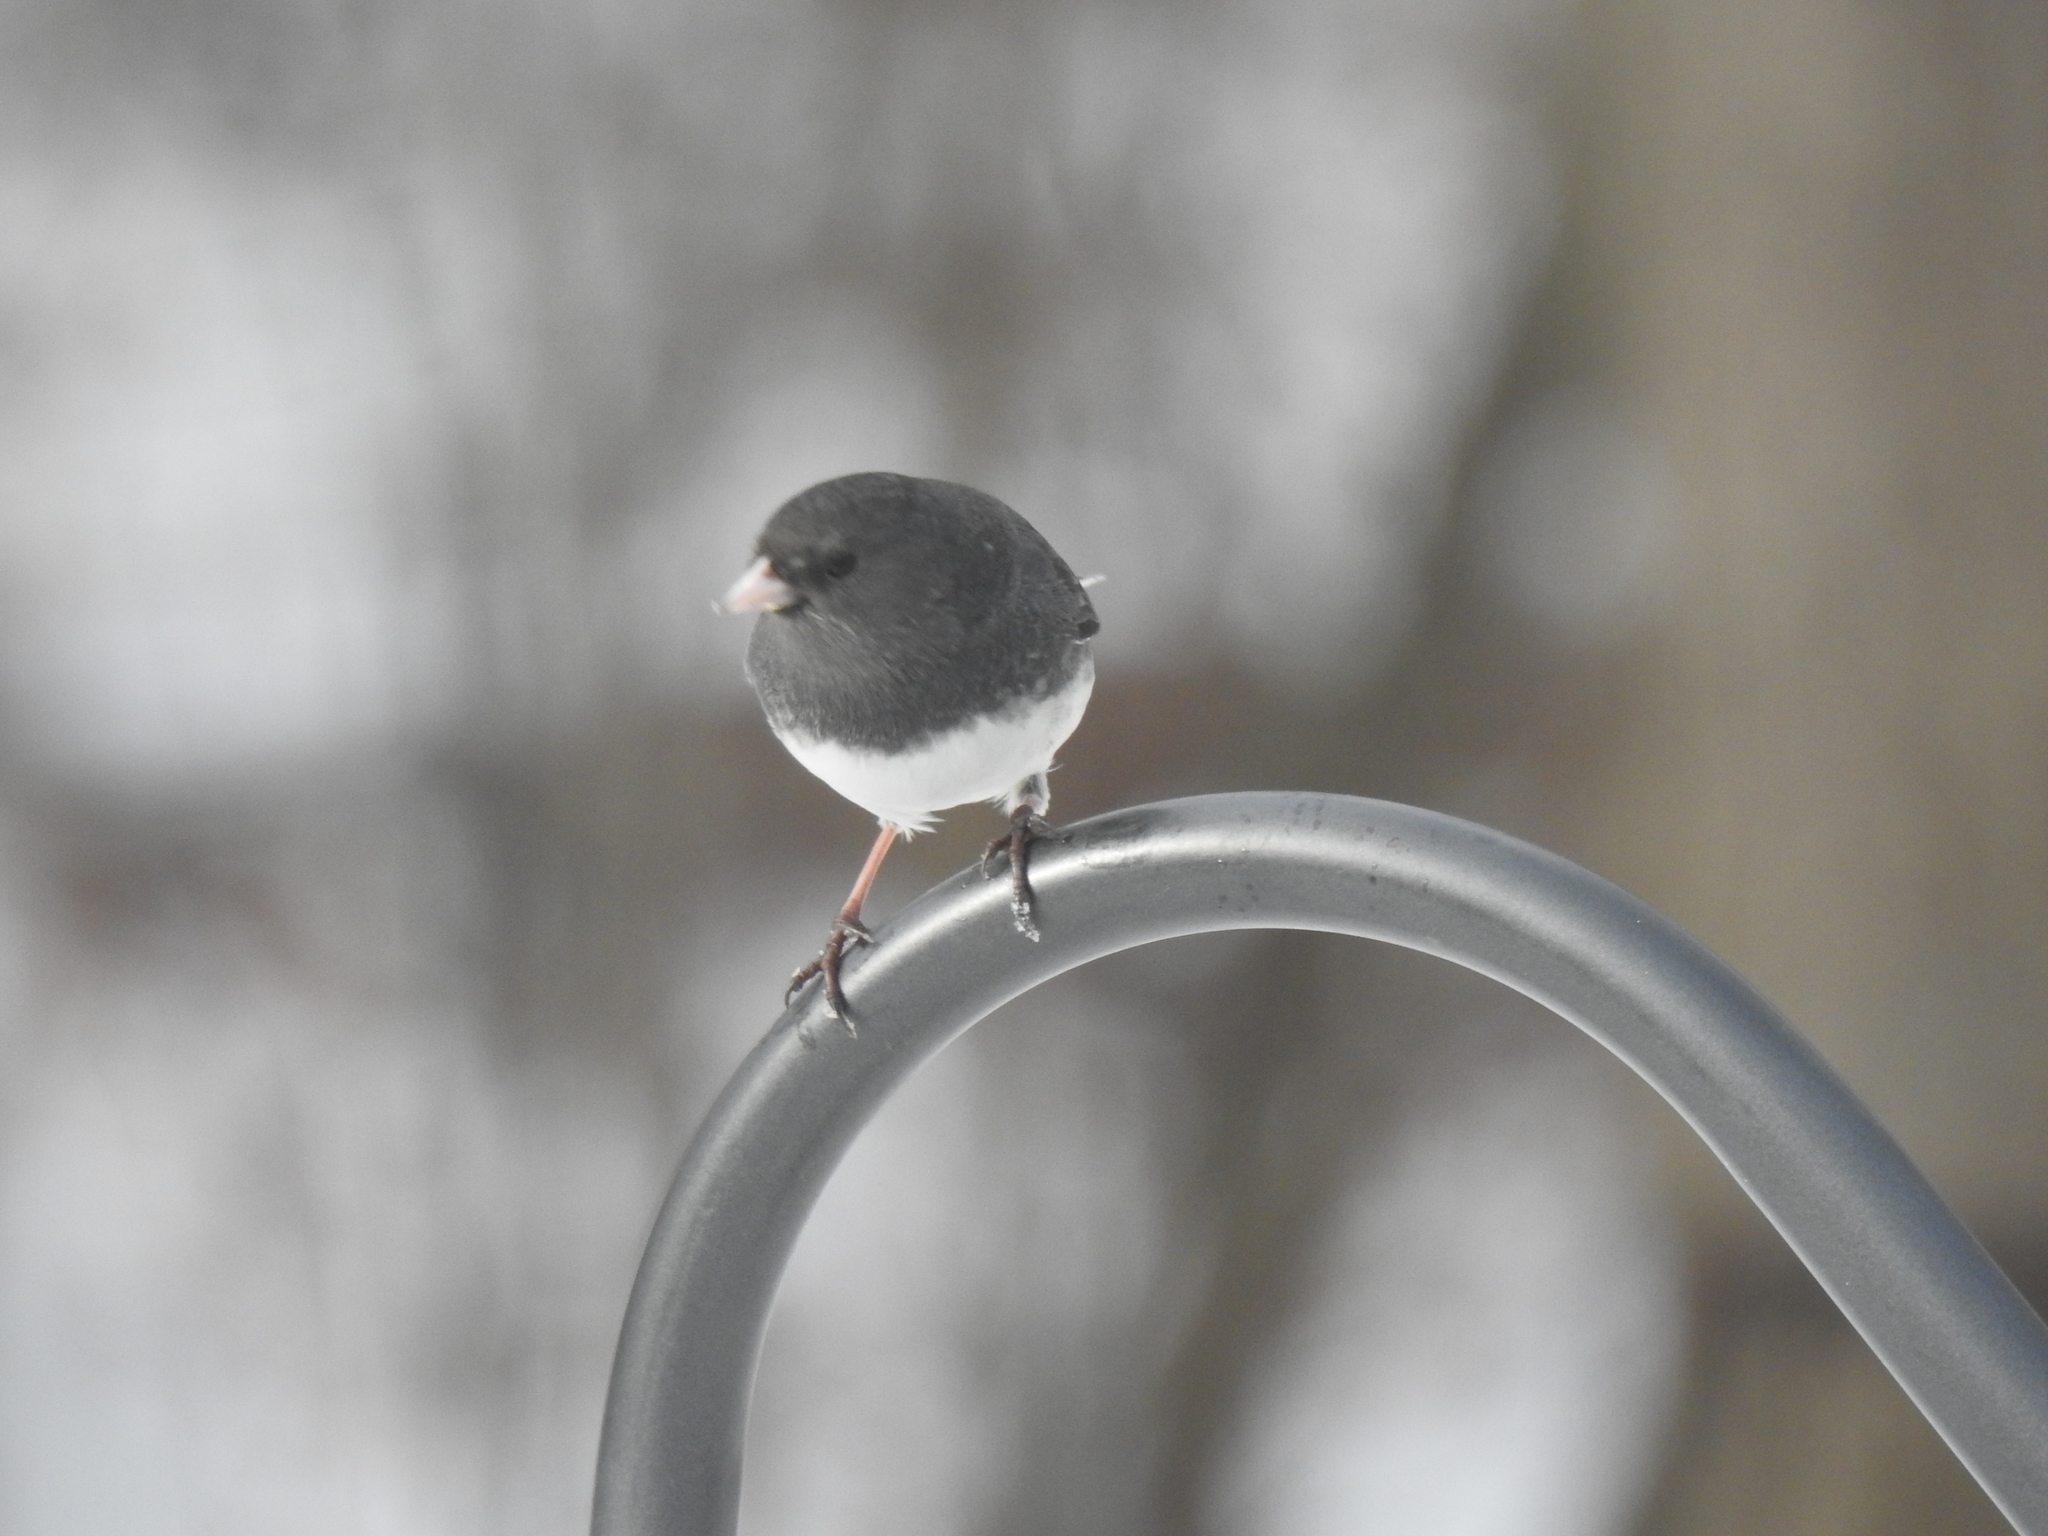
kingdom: Animalia
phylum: Chordata
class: Aves
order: Passeriformes
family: Passerellidae
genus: Junco
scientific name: Junco hyemalis
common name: Dark-eyed junco
